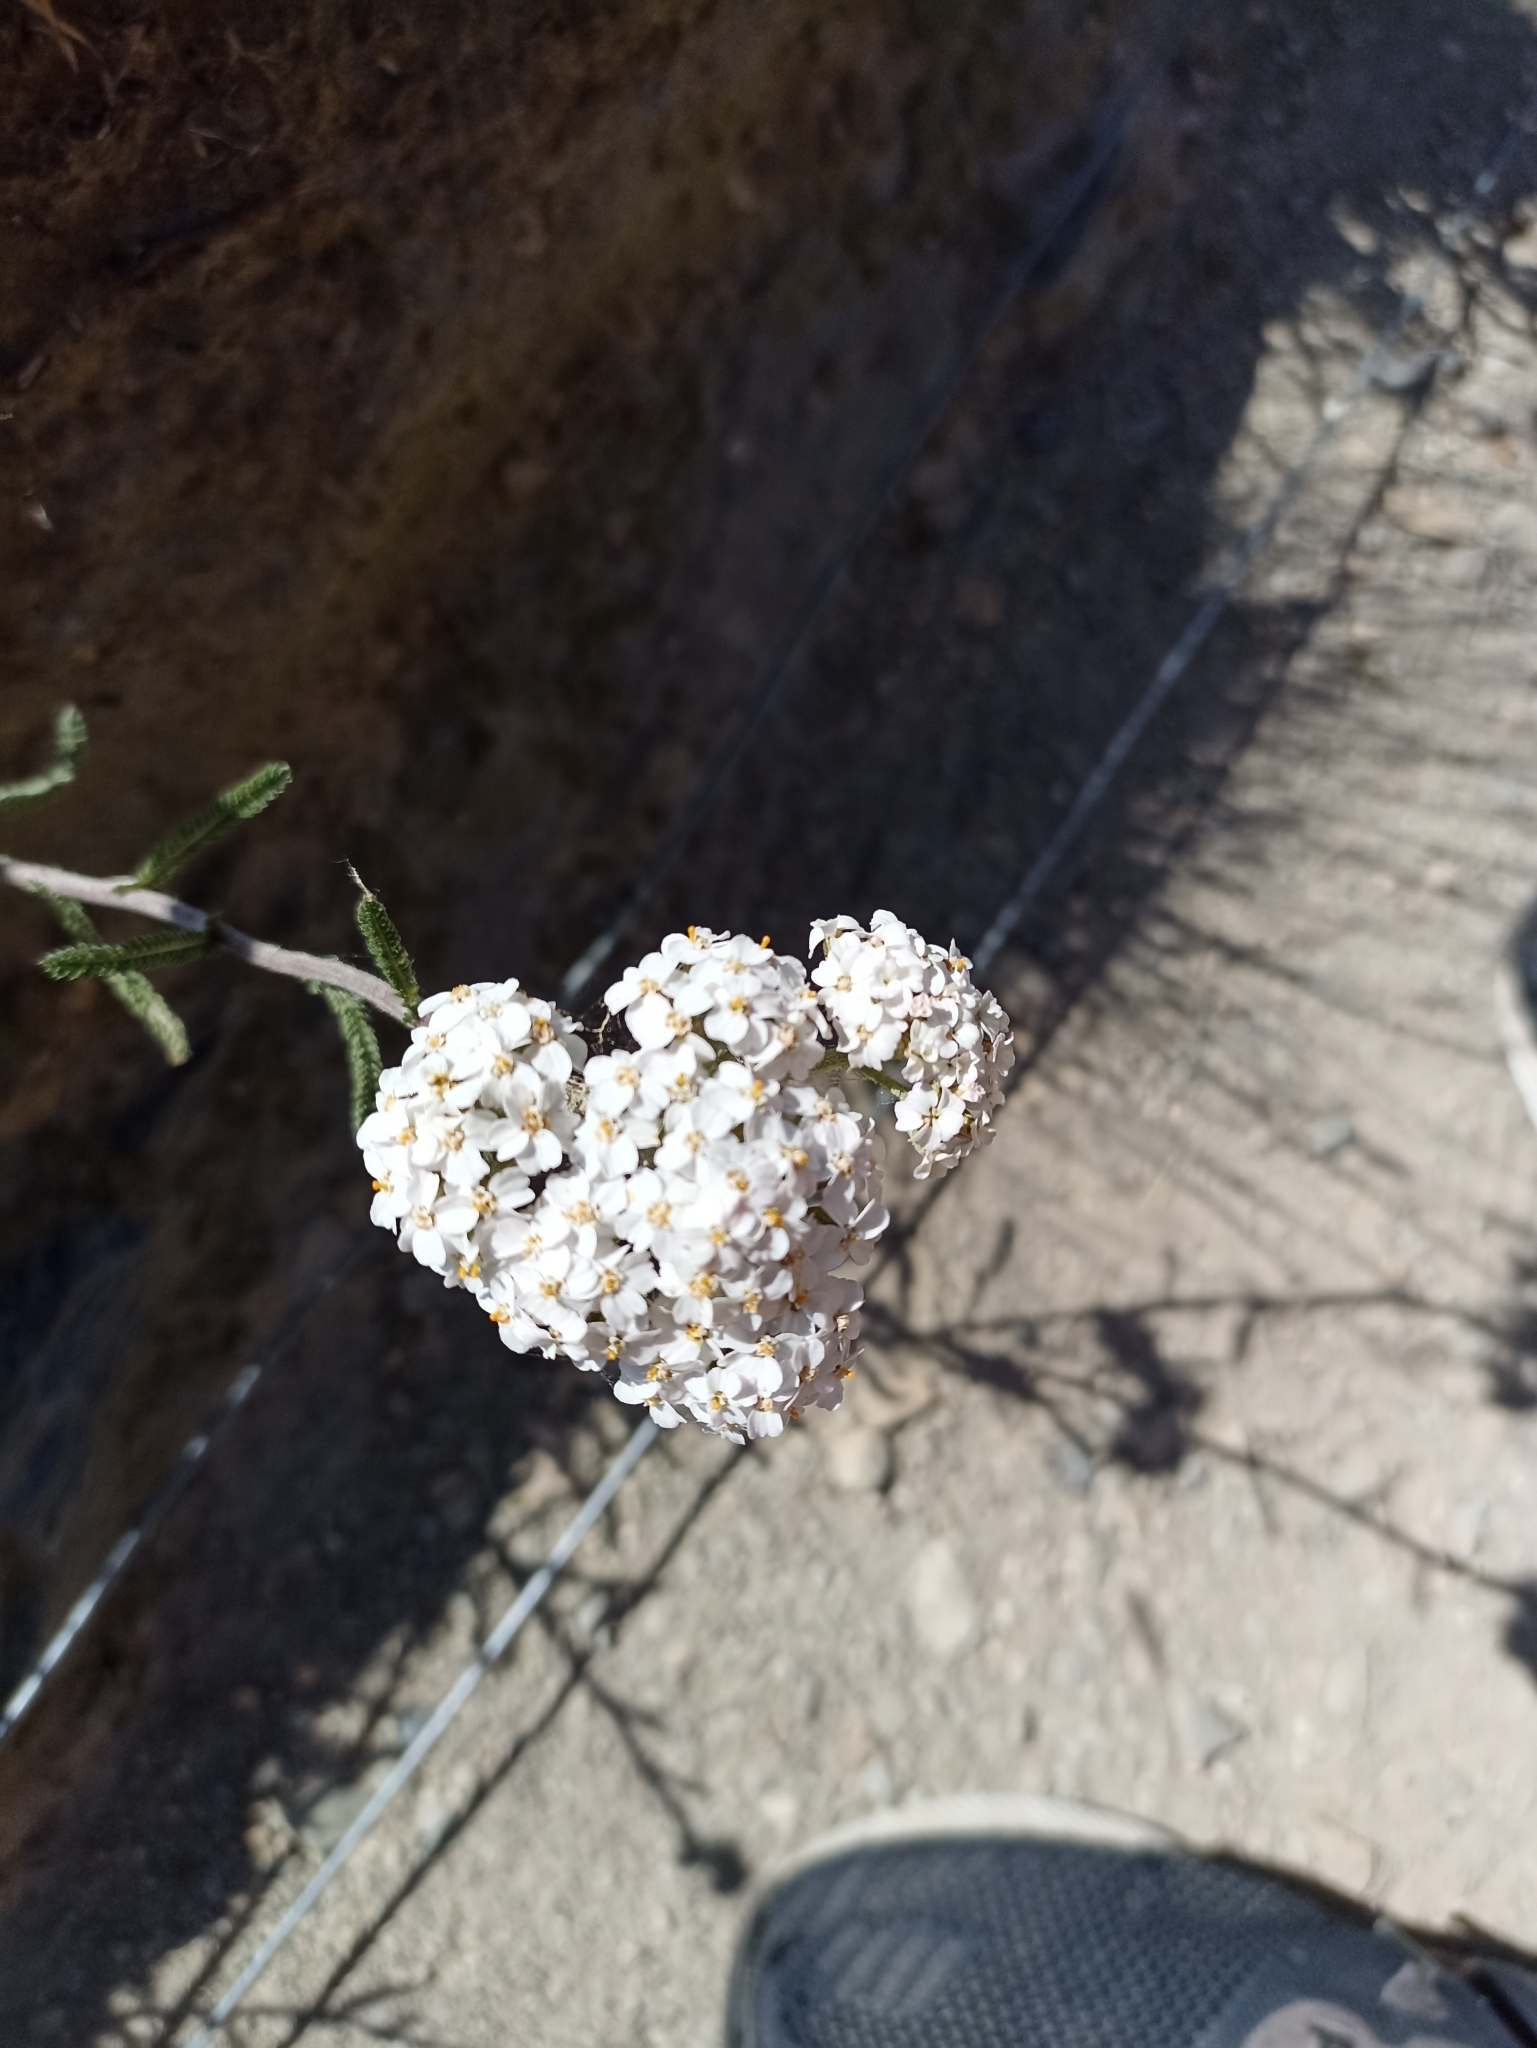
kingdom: Plantae
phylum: Tracheophyta
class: Magnoliopsida
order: Asterales
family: Asteraceae
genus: Achillea
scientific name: Achillea millefolium
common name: Yarrow
